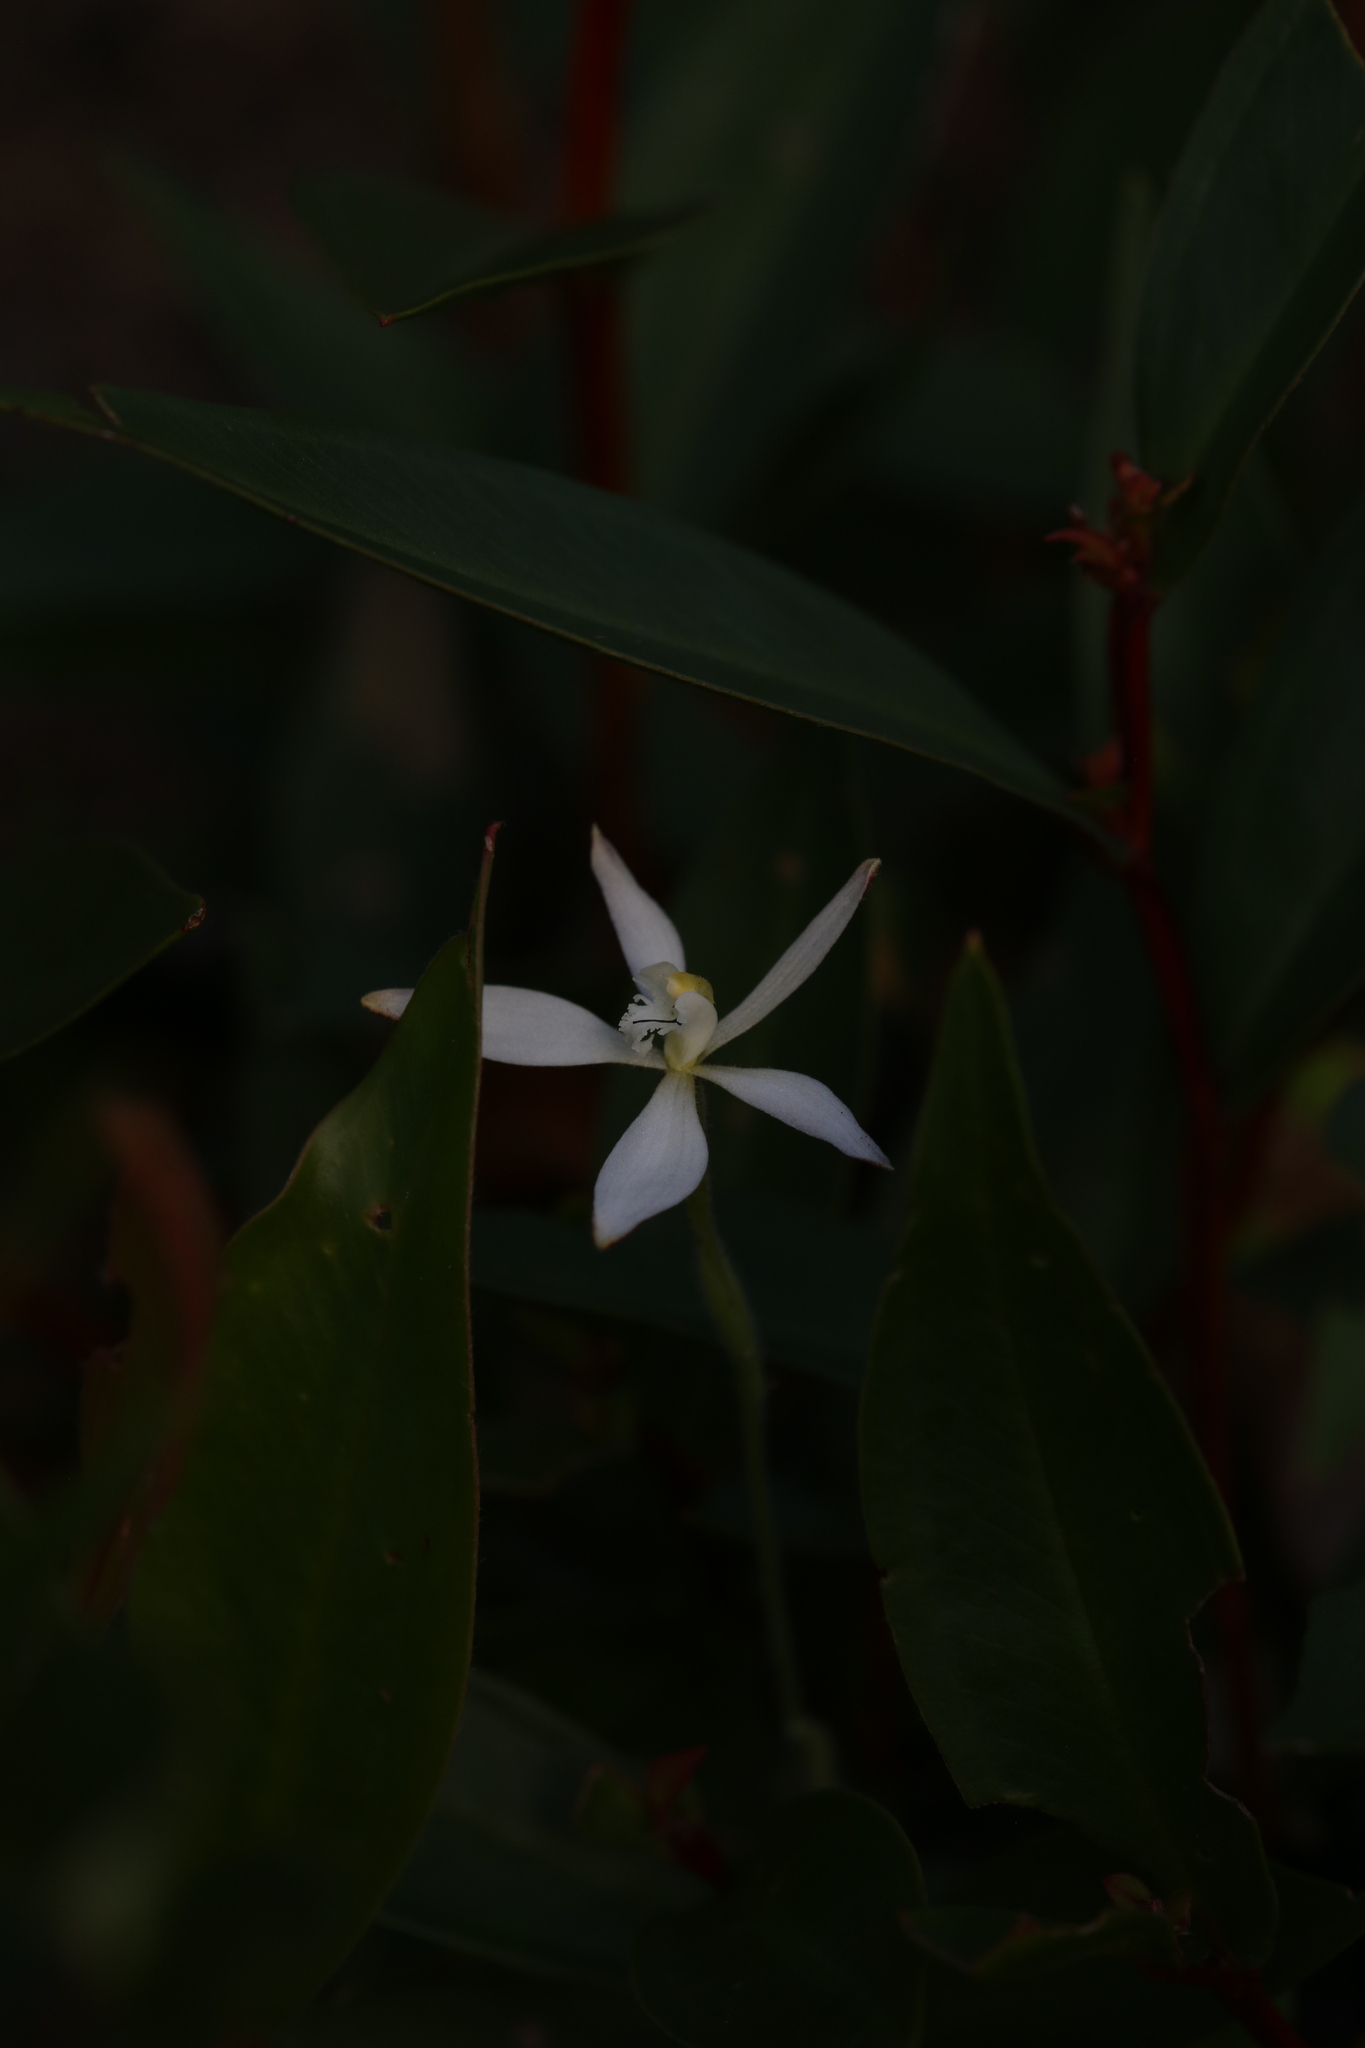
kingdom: Plantae
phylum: Tracheophyta
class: Liliopsida
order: Asparagales
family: Orchidaceae
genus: Caladenia
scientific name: Caladenia marginata
